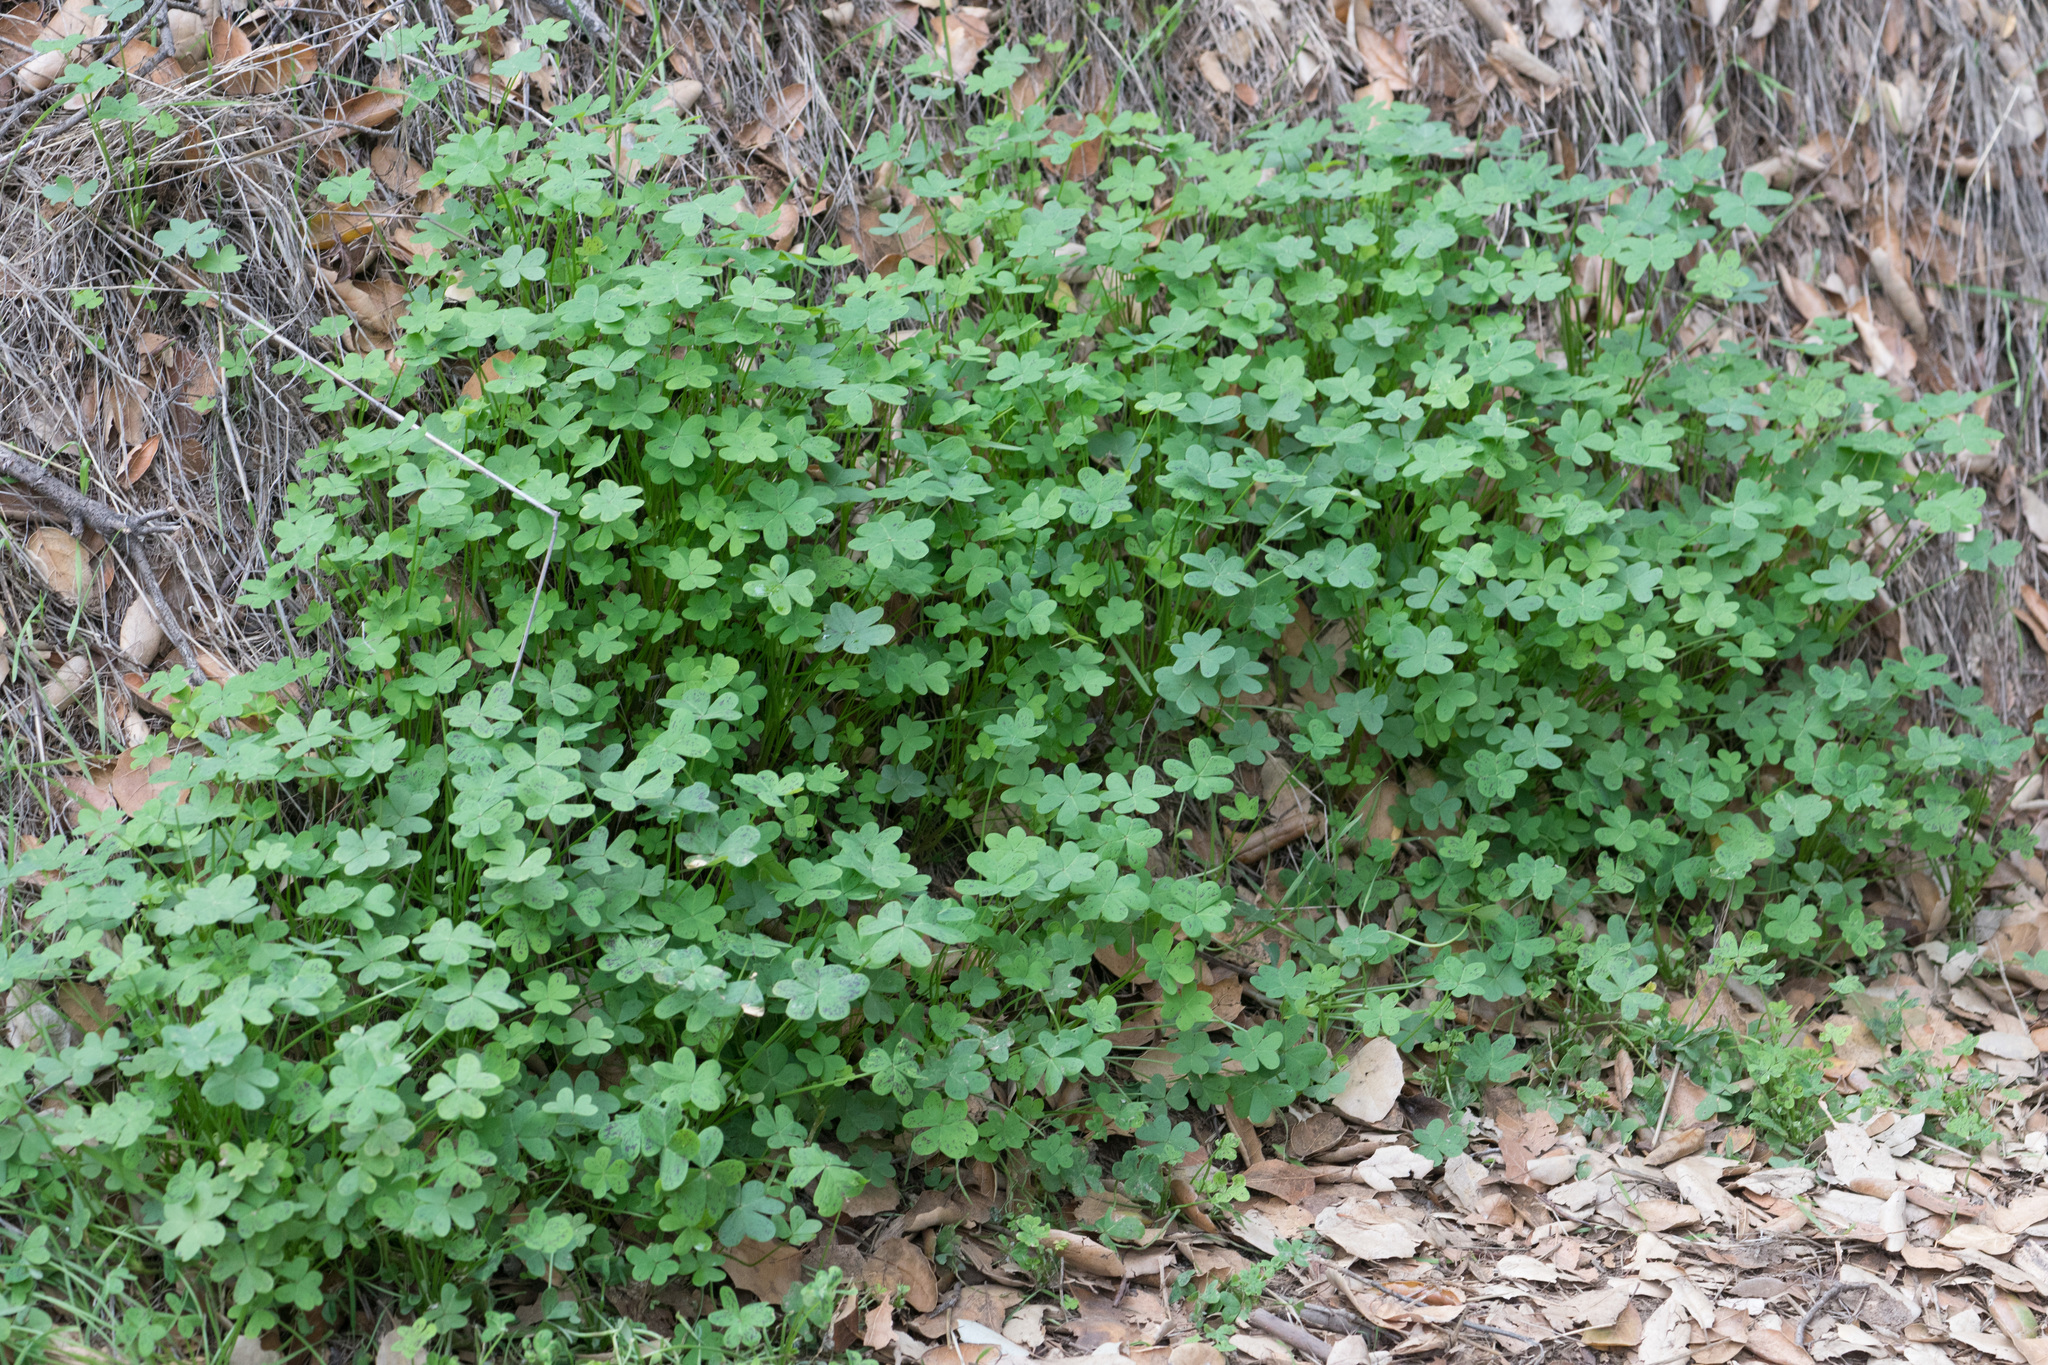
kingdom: Plantae
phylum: Tracheophyta
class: Magnoliopsida
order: Oxalidales
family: Oxalidaceae
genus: Oxalis
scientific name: Oxalis pes-caprae
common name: Bermuda-buttercup
